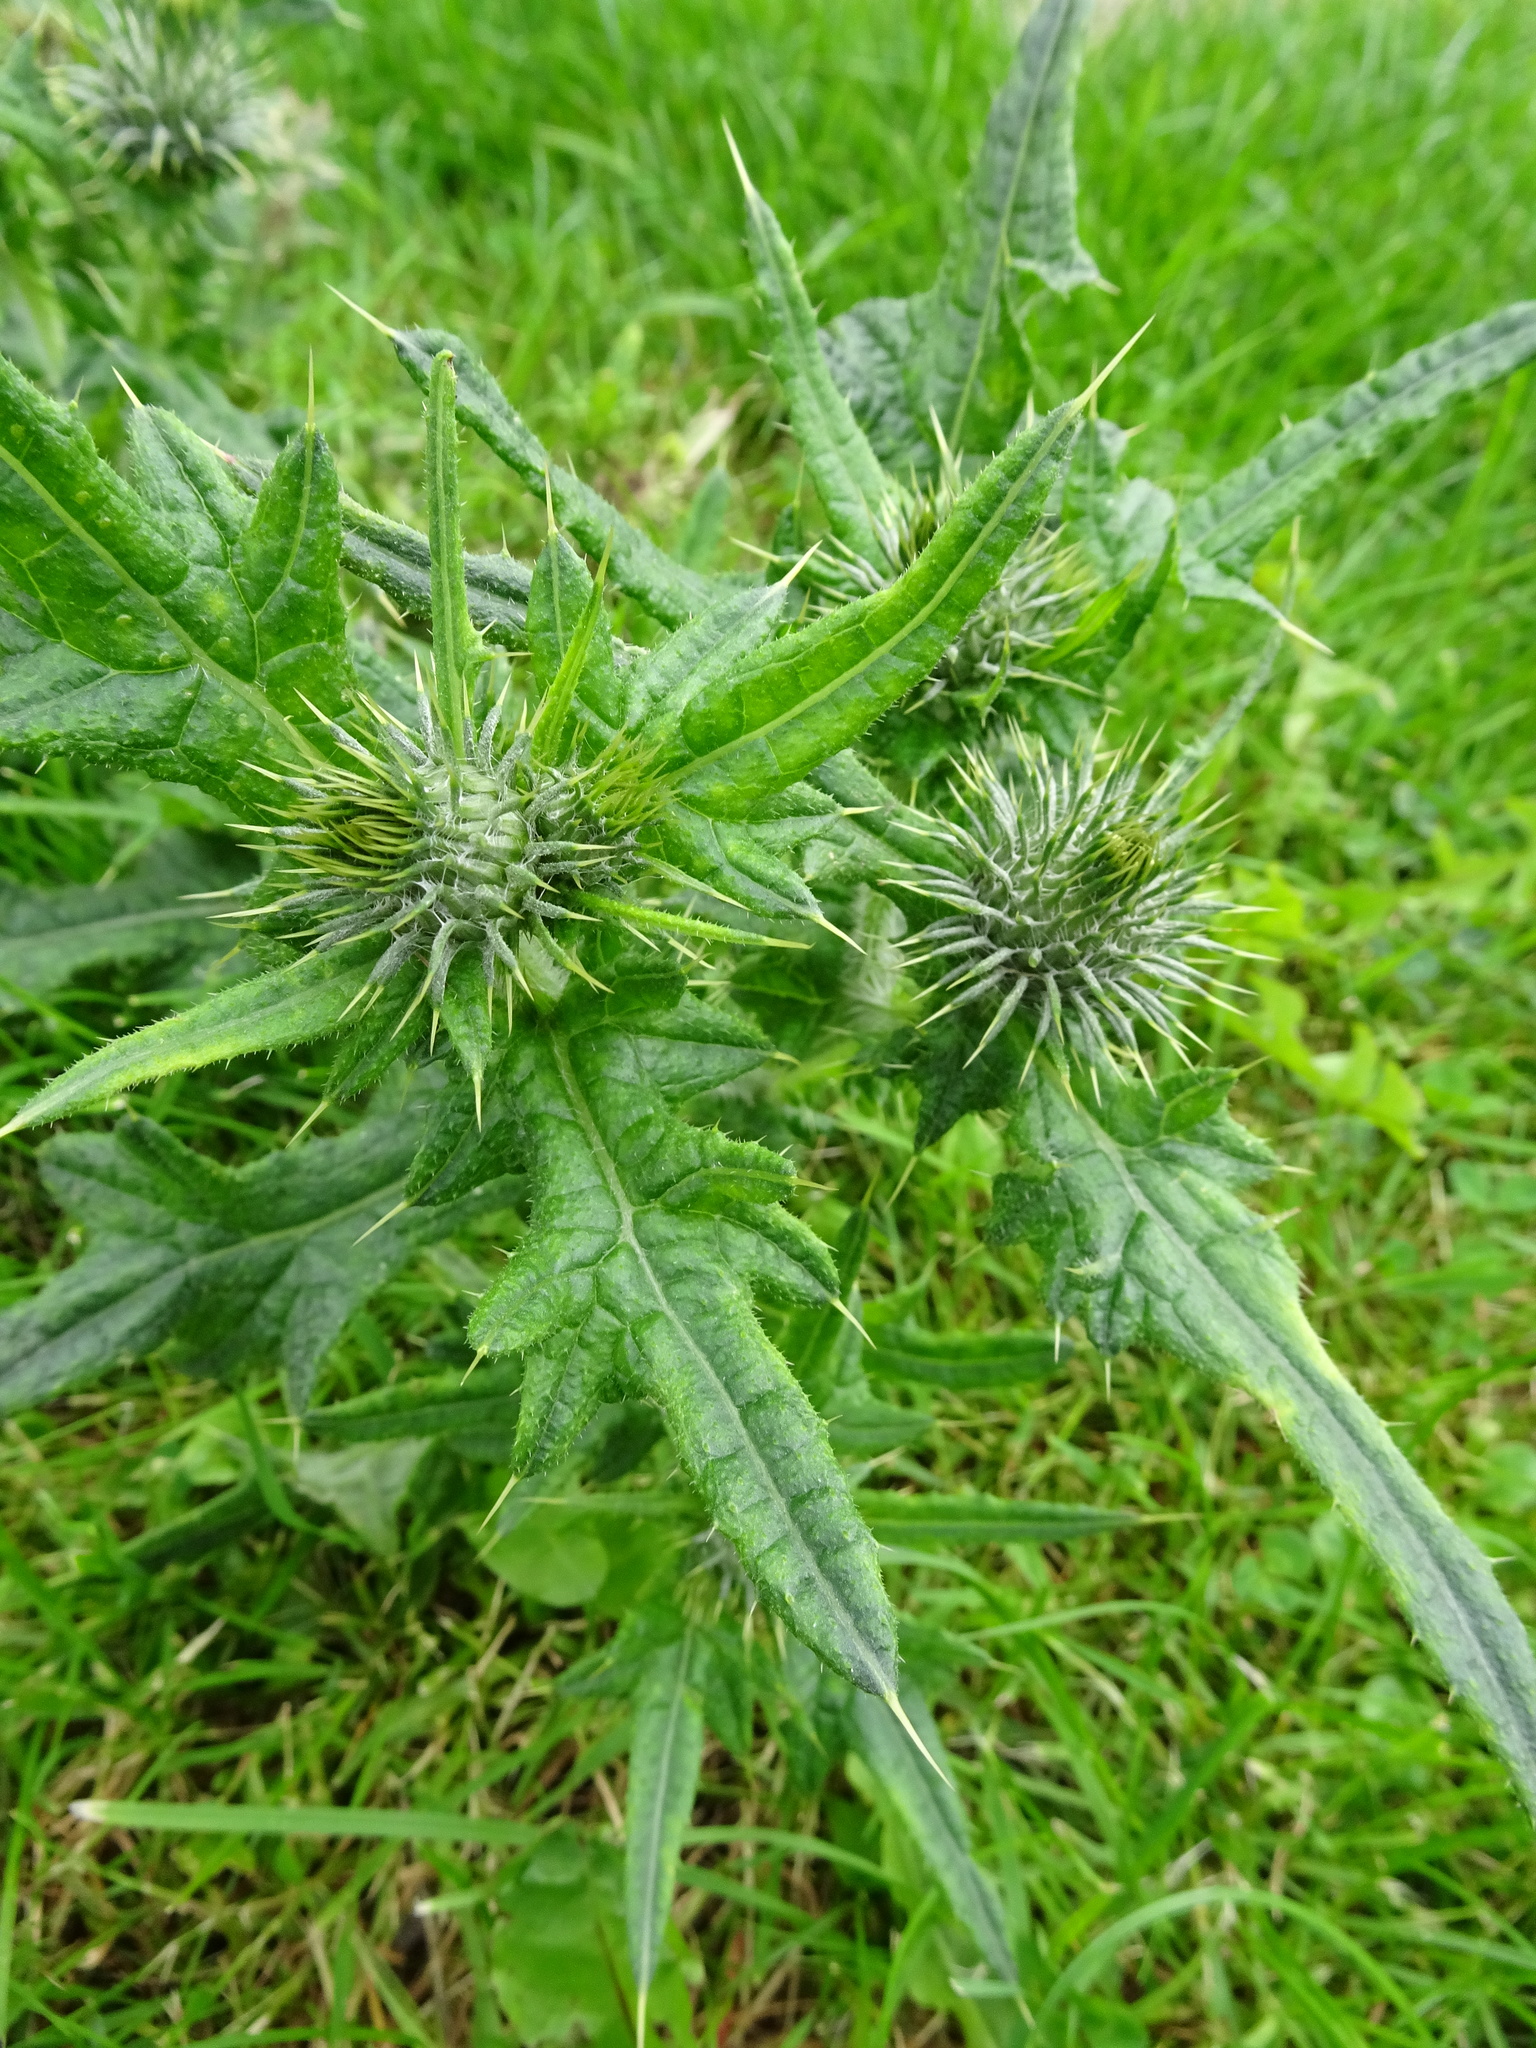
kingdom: Plantae
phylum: Tracheophyta
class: Magnoliopsida
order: Asterales
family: Asteraceae
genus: Cirsium
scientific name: Cirsium vulgare
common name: Bull thistle
